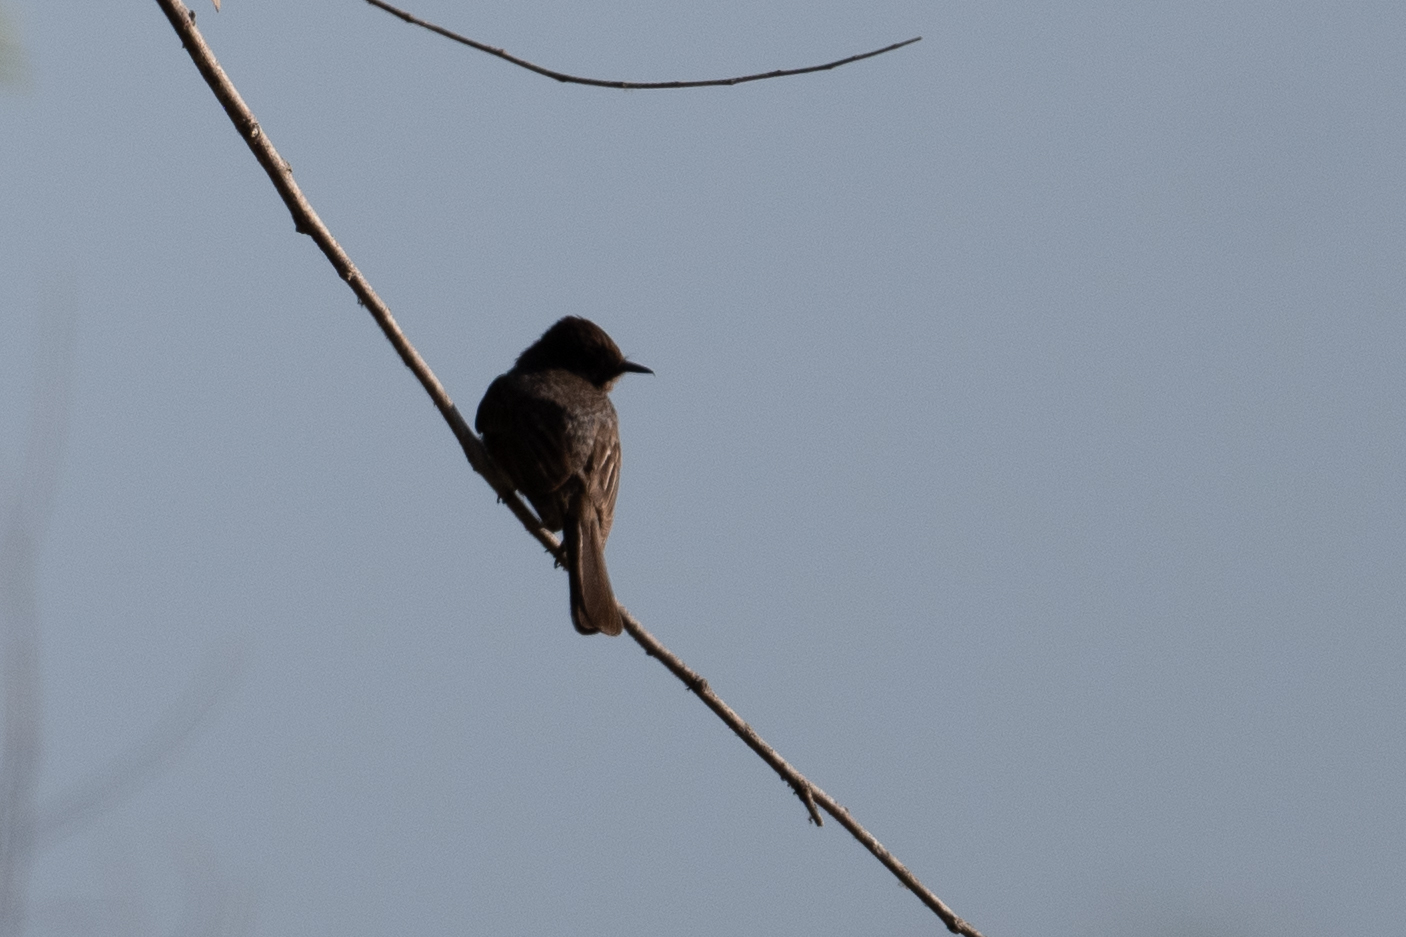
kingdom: Animalia
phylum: Chordata
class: Aves
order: Passeriformes
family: Tyrannidae
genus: Sayornis
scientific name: Sayornis nigricans
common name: Black phoebe
